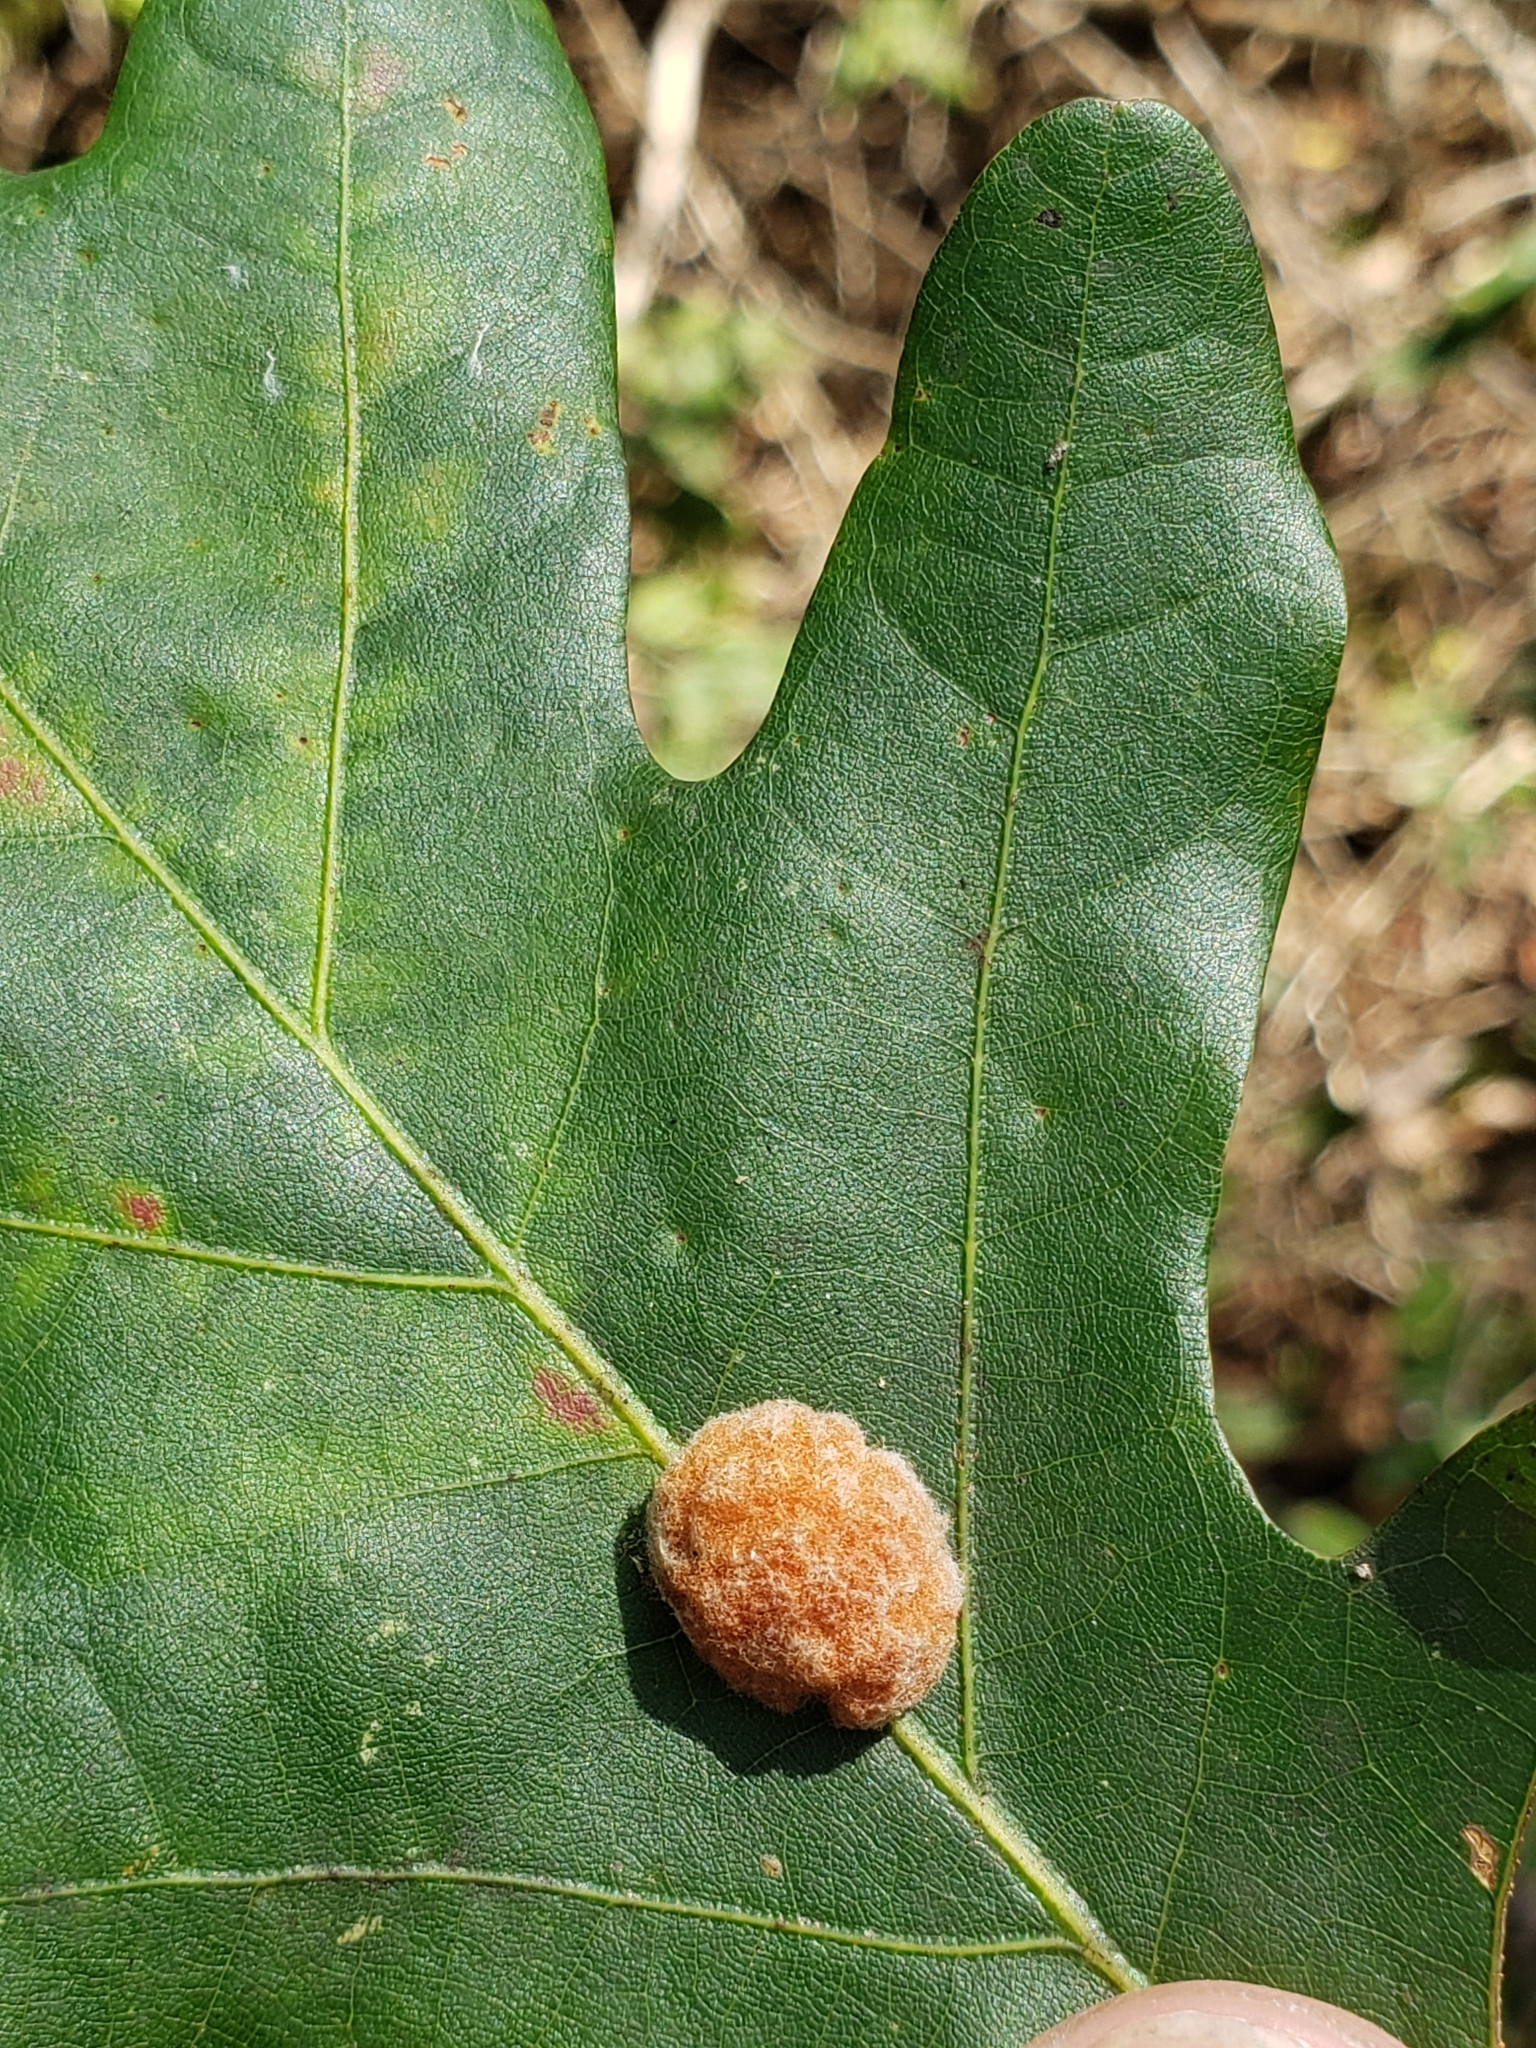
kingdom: Animalia
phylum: Arthropoda
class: Insecta
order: Hymenoptera
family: Cynipidae
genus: Andricus
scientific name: Andricus quercusflocci
